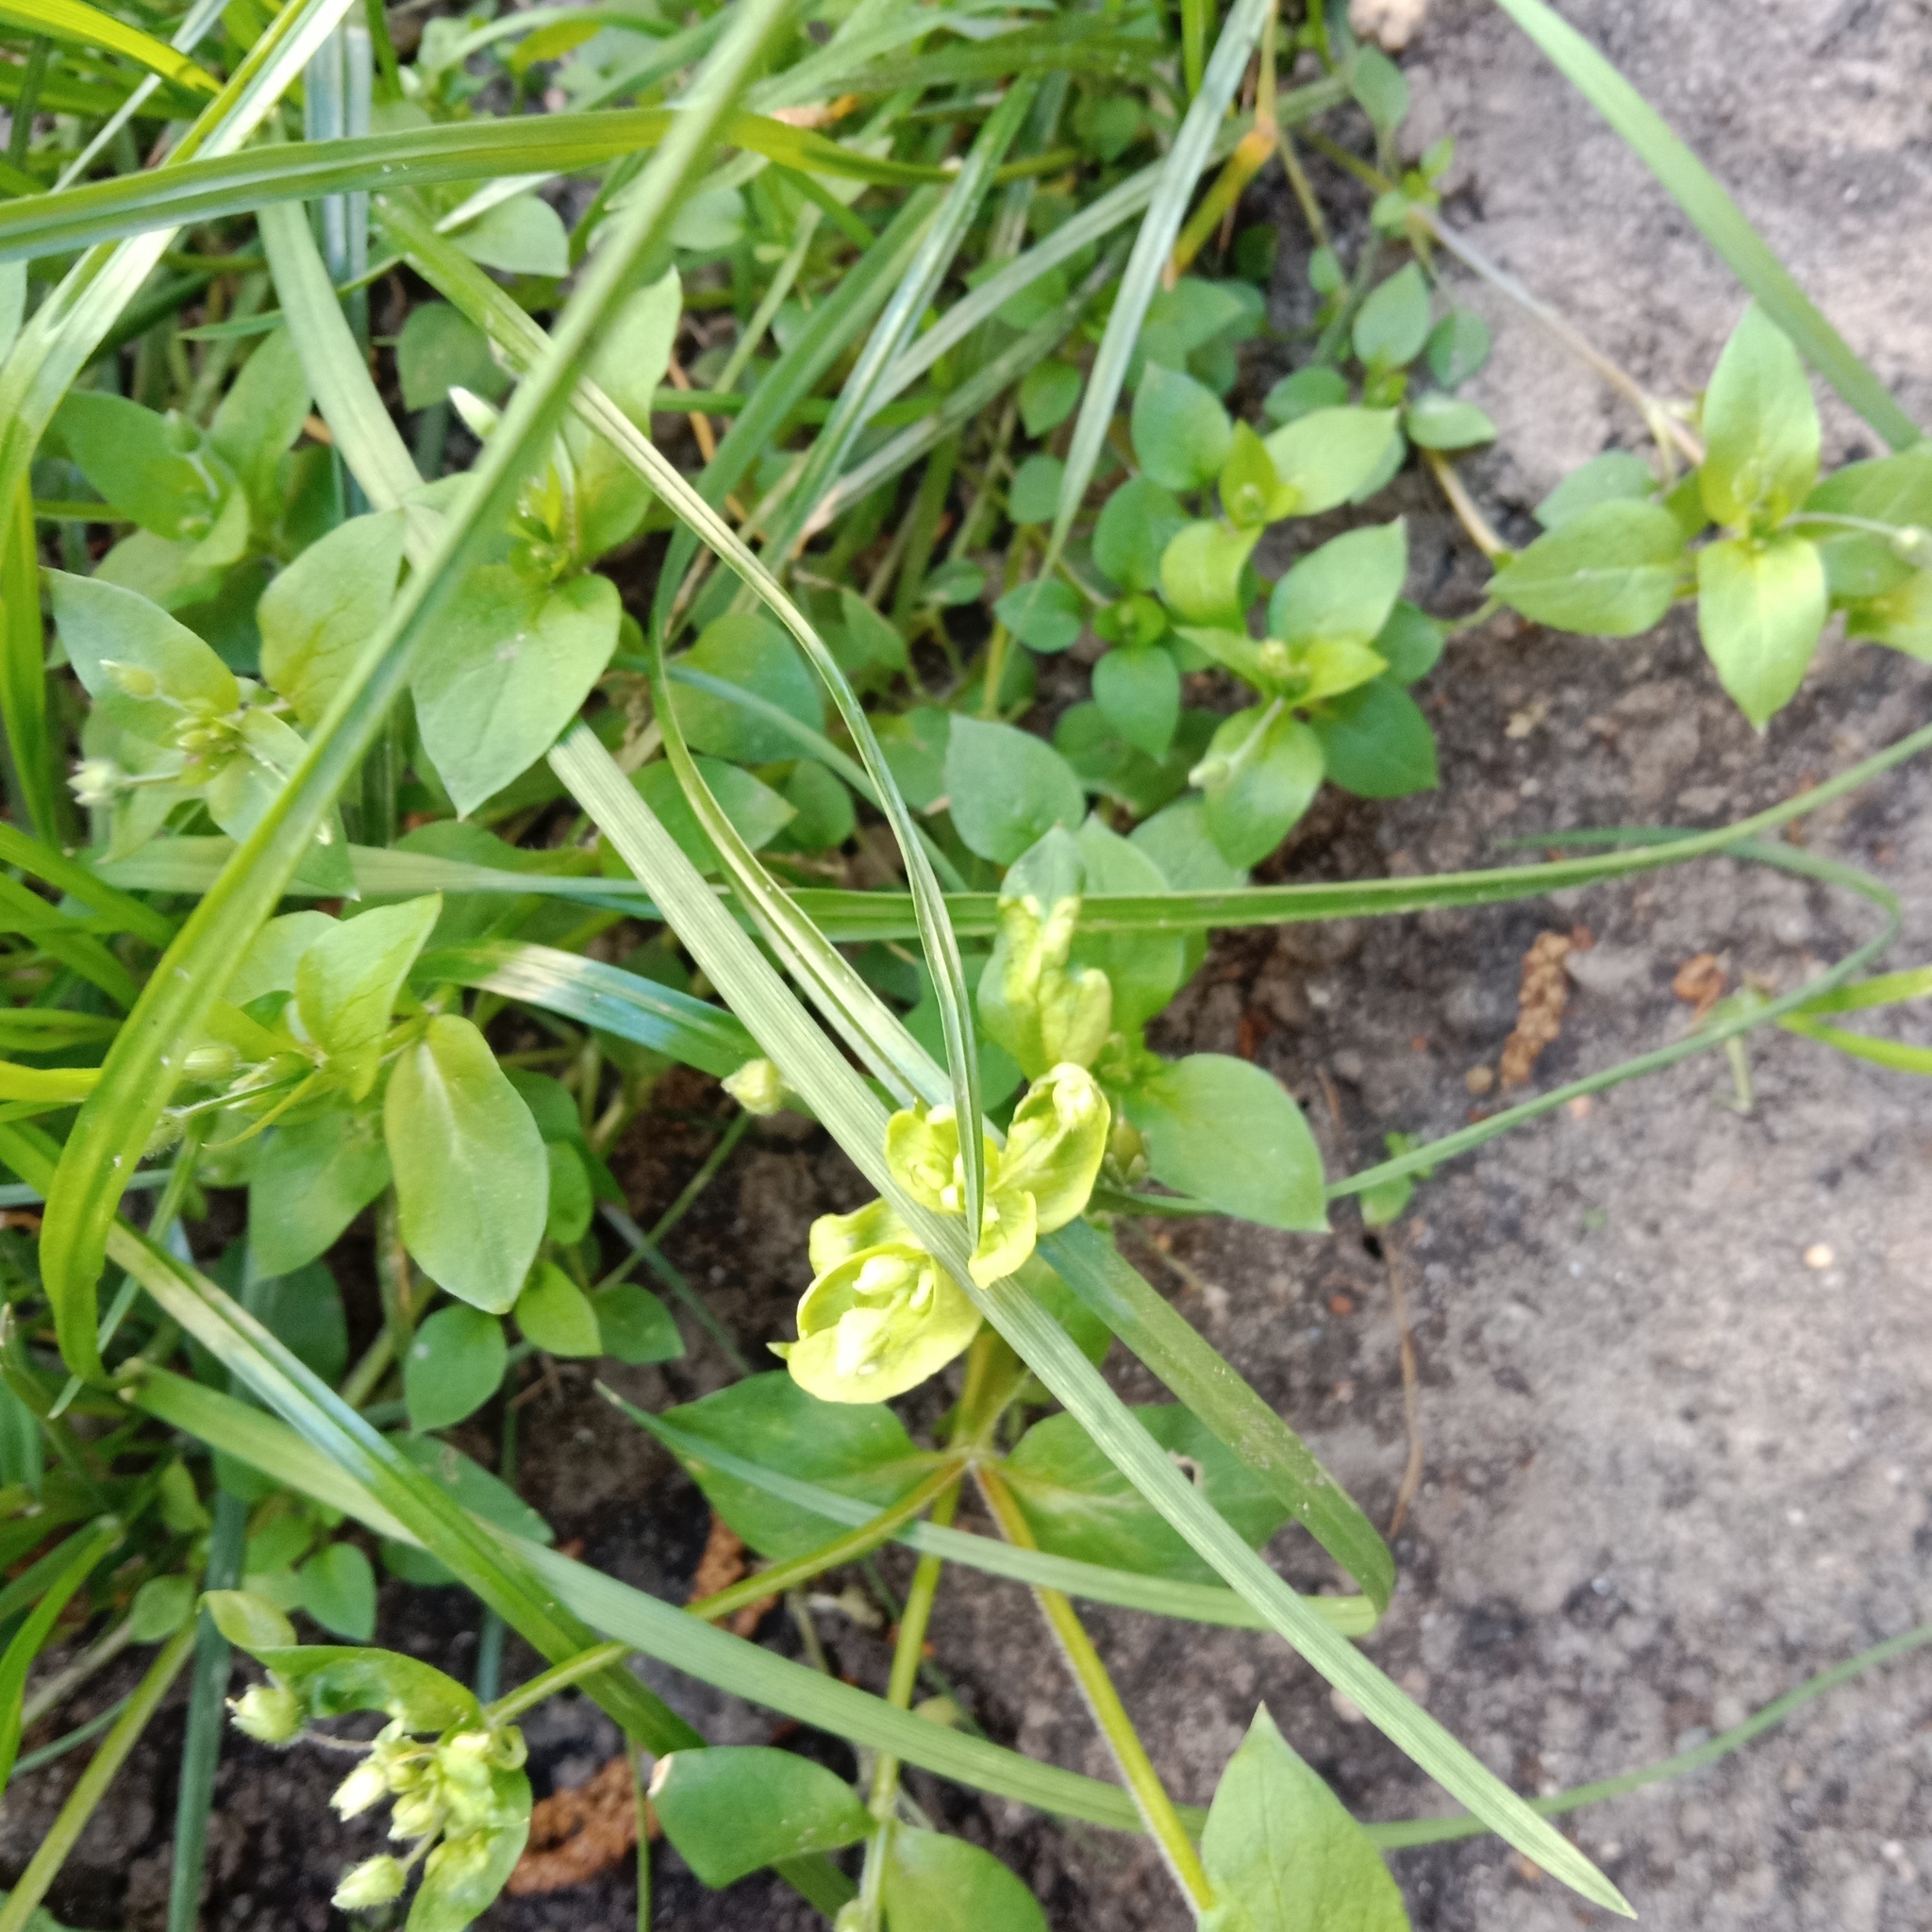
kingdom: Plantae
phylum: Tracheophyta
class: Magnoliopsida
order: Caryophyllales
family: Caryophyllaceae
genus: Stellaria
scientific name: Stellaria media
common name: Common chickweed
